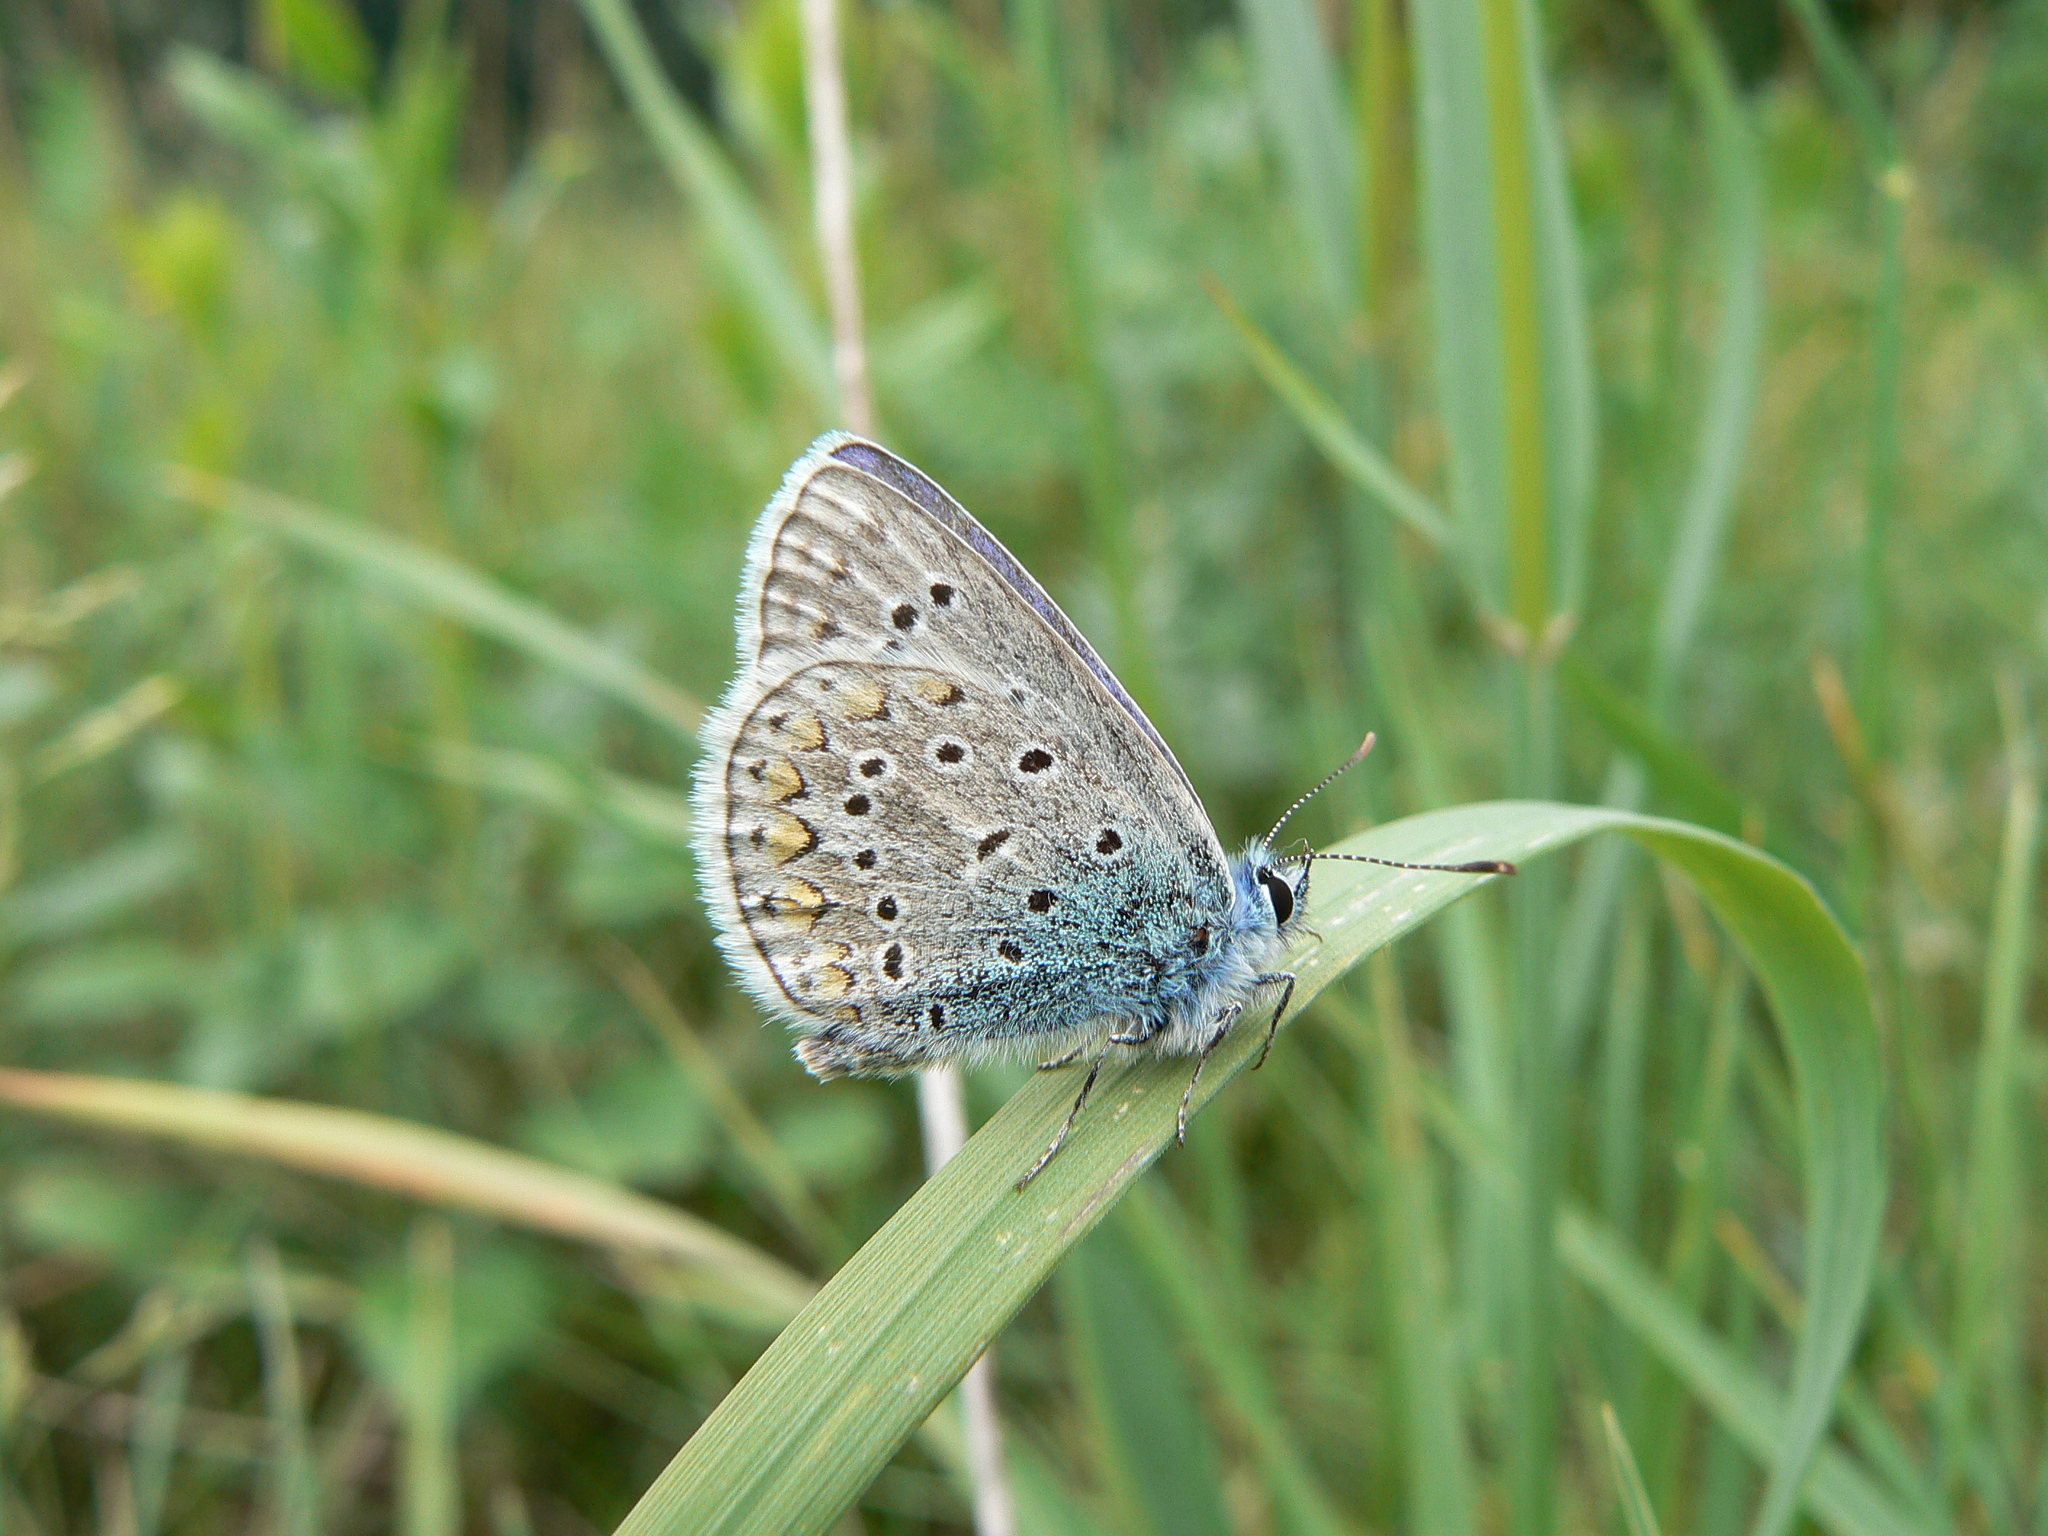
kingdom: Animalia
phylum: Arthropoda
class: Insecta
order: Lepidoptera
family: Lycaenidae
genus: Polyommatus
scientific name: Polyommatus icarus
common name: Common blue
